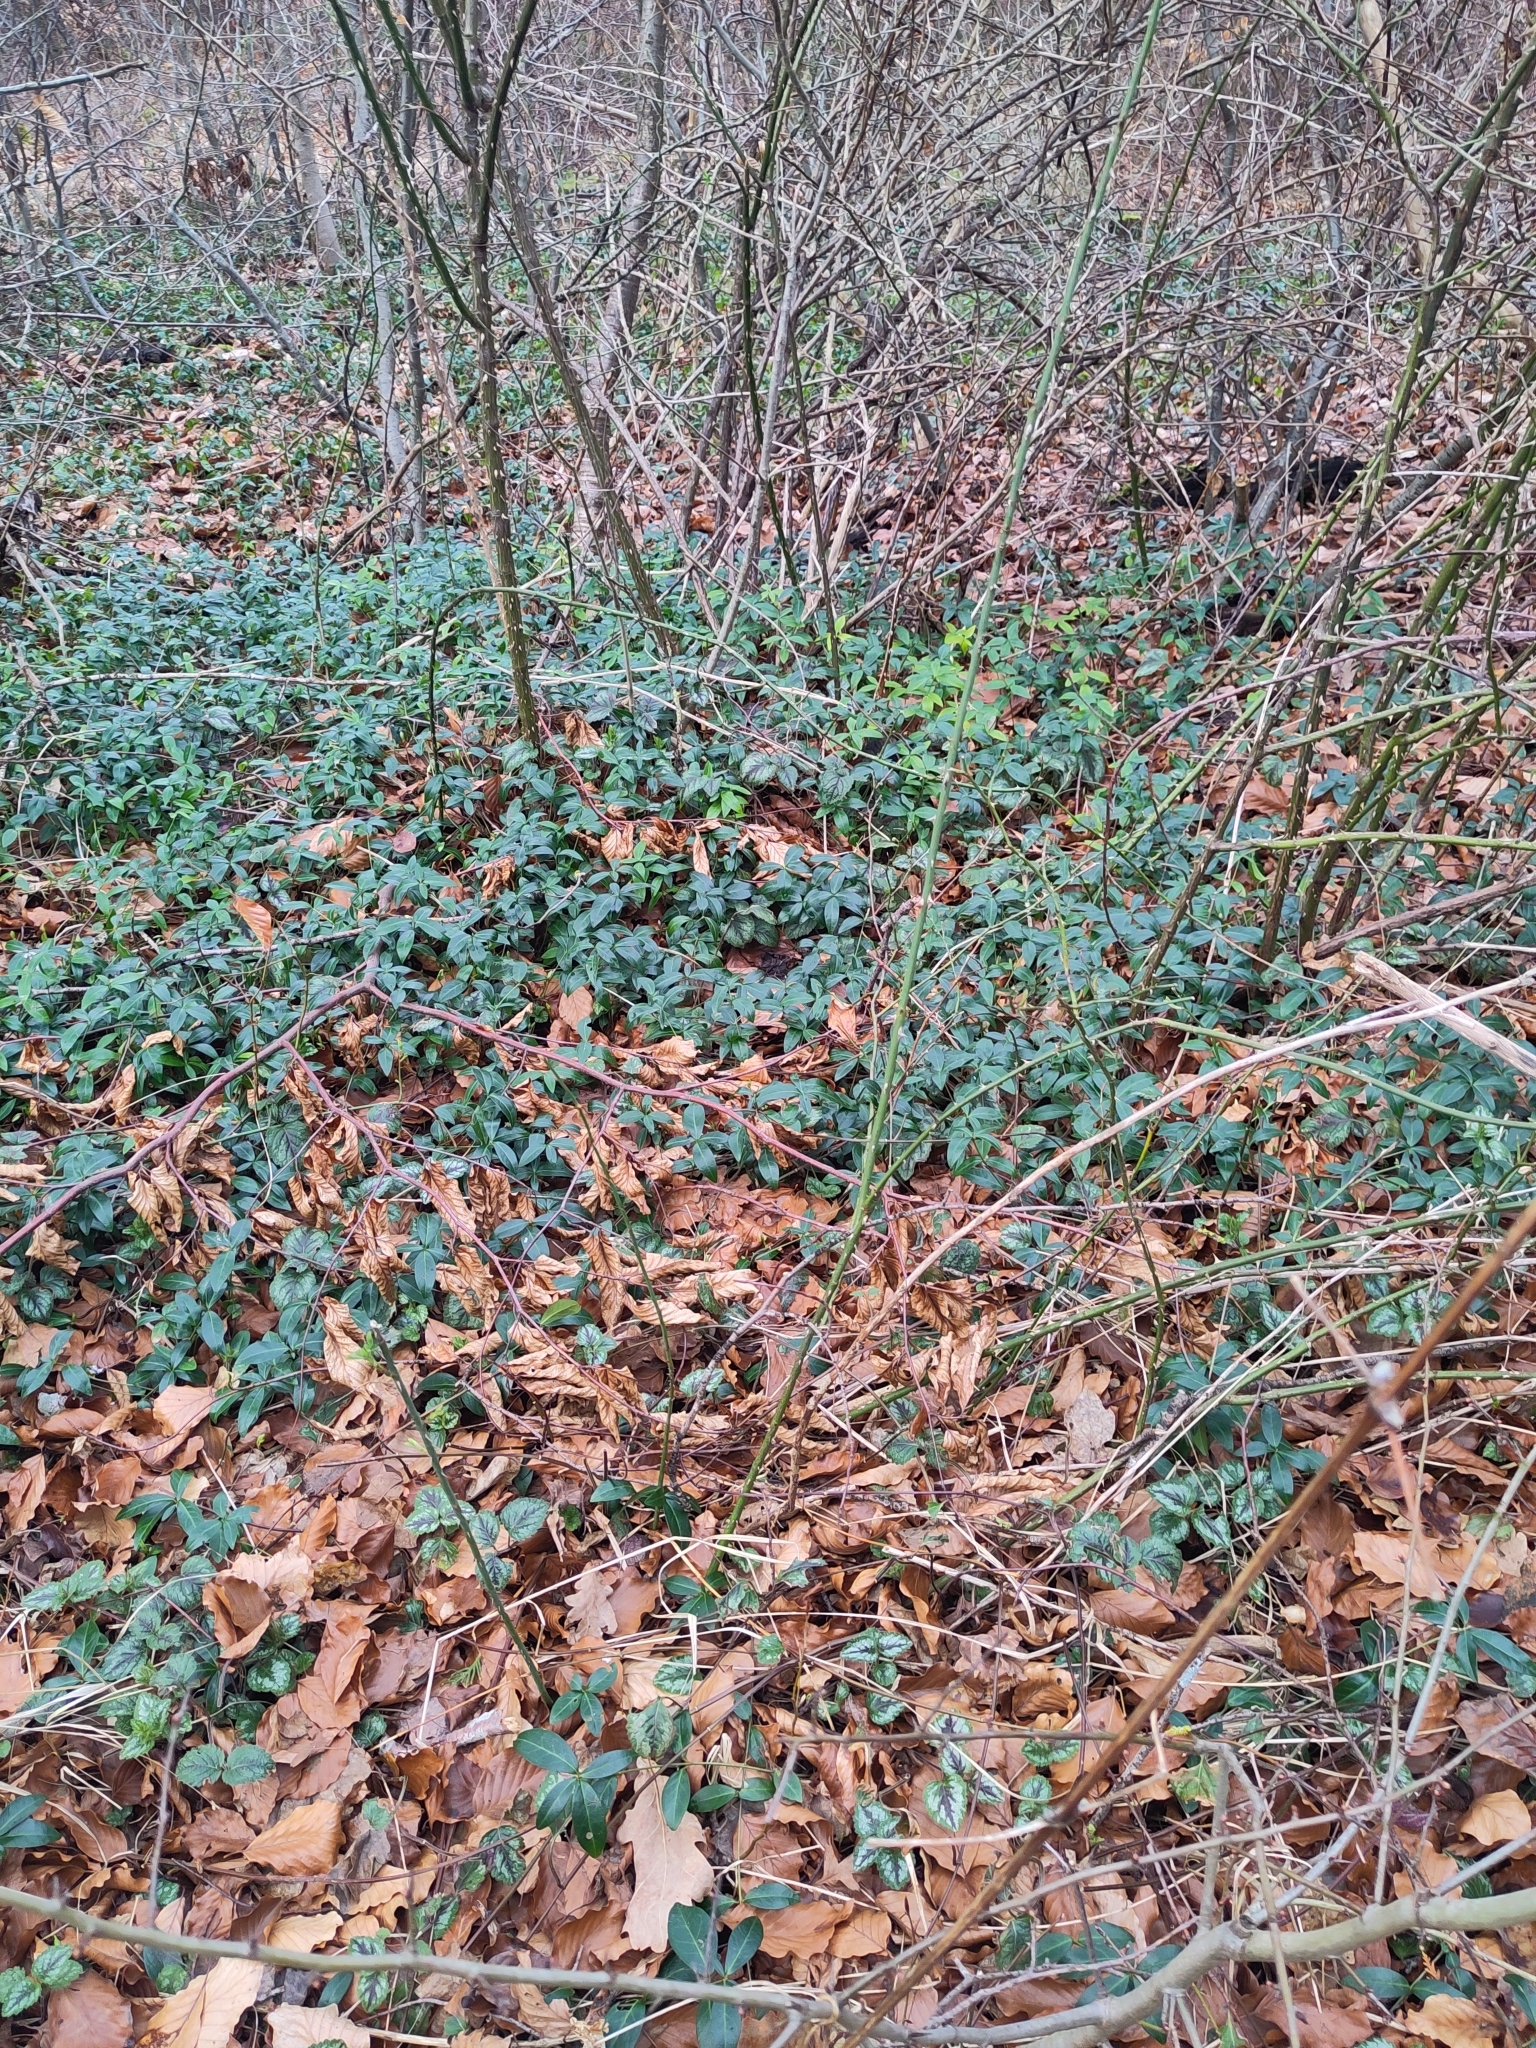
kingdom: Plantae
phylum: Tracheophyta
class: Magnoliopsida
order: Gentianales
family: Apocynaceae
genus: Vinca
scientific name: Vinca minor
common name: Lesser periwinkle
